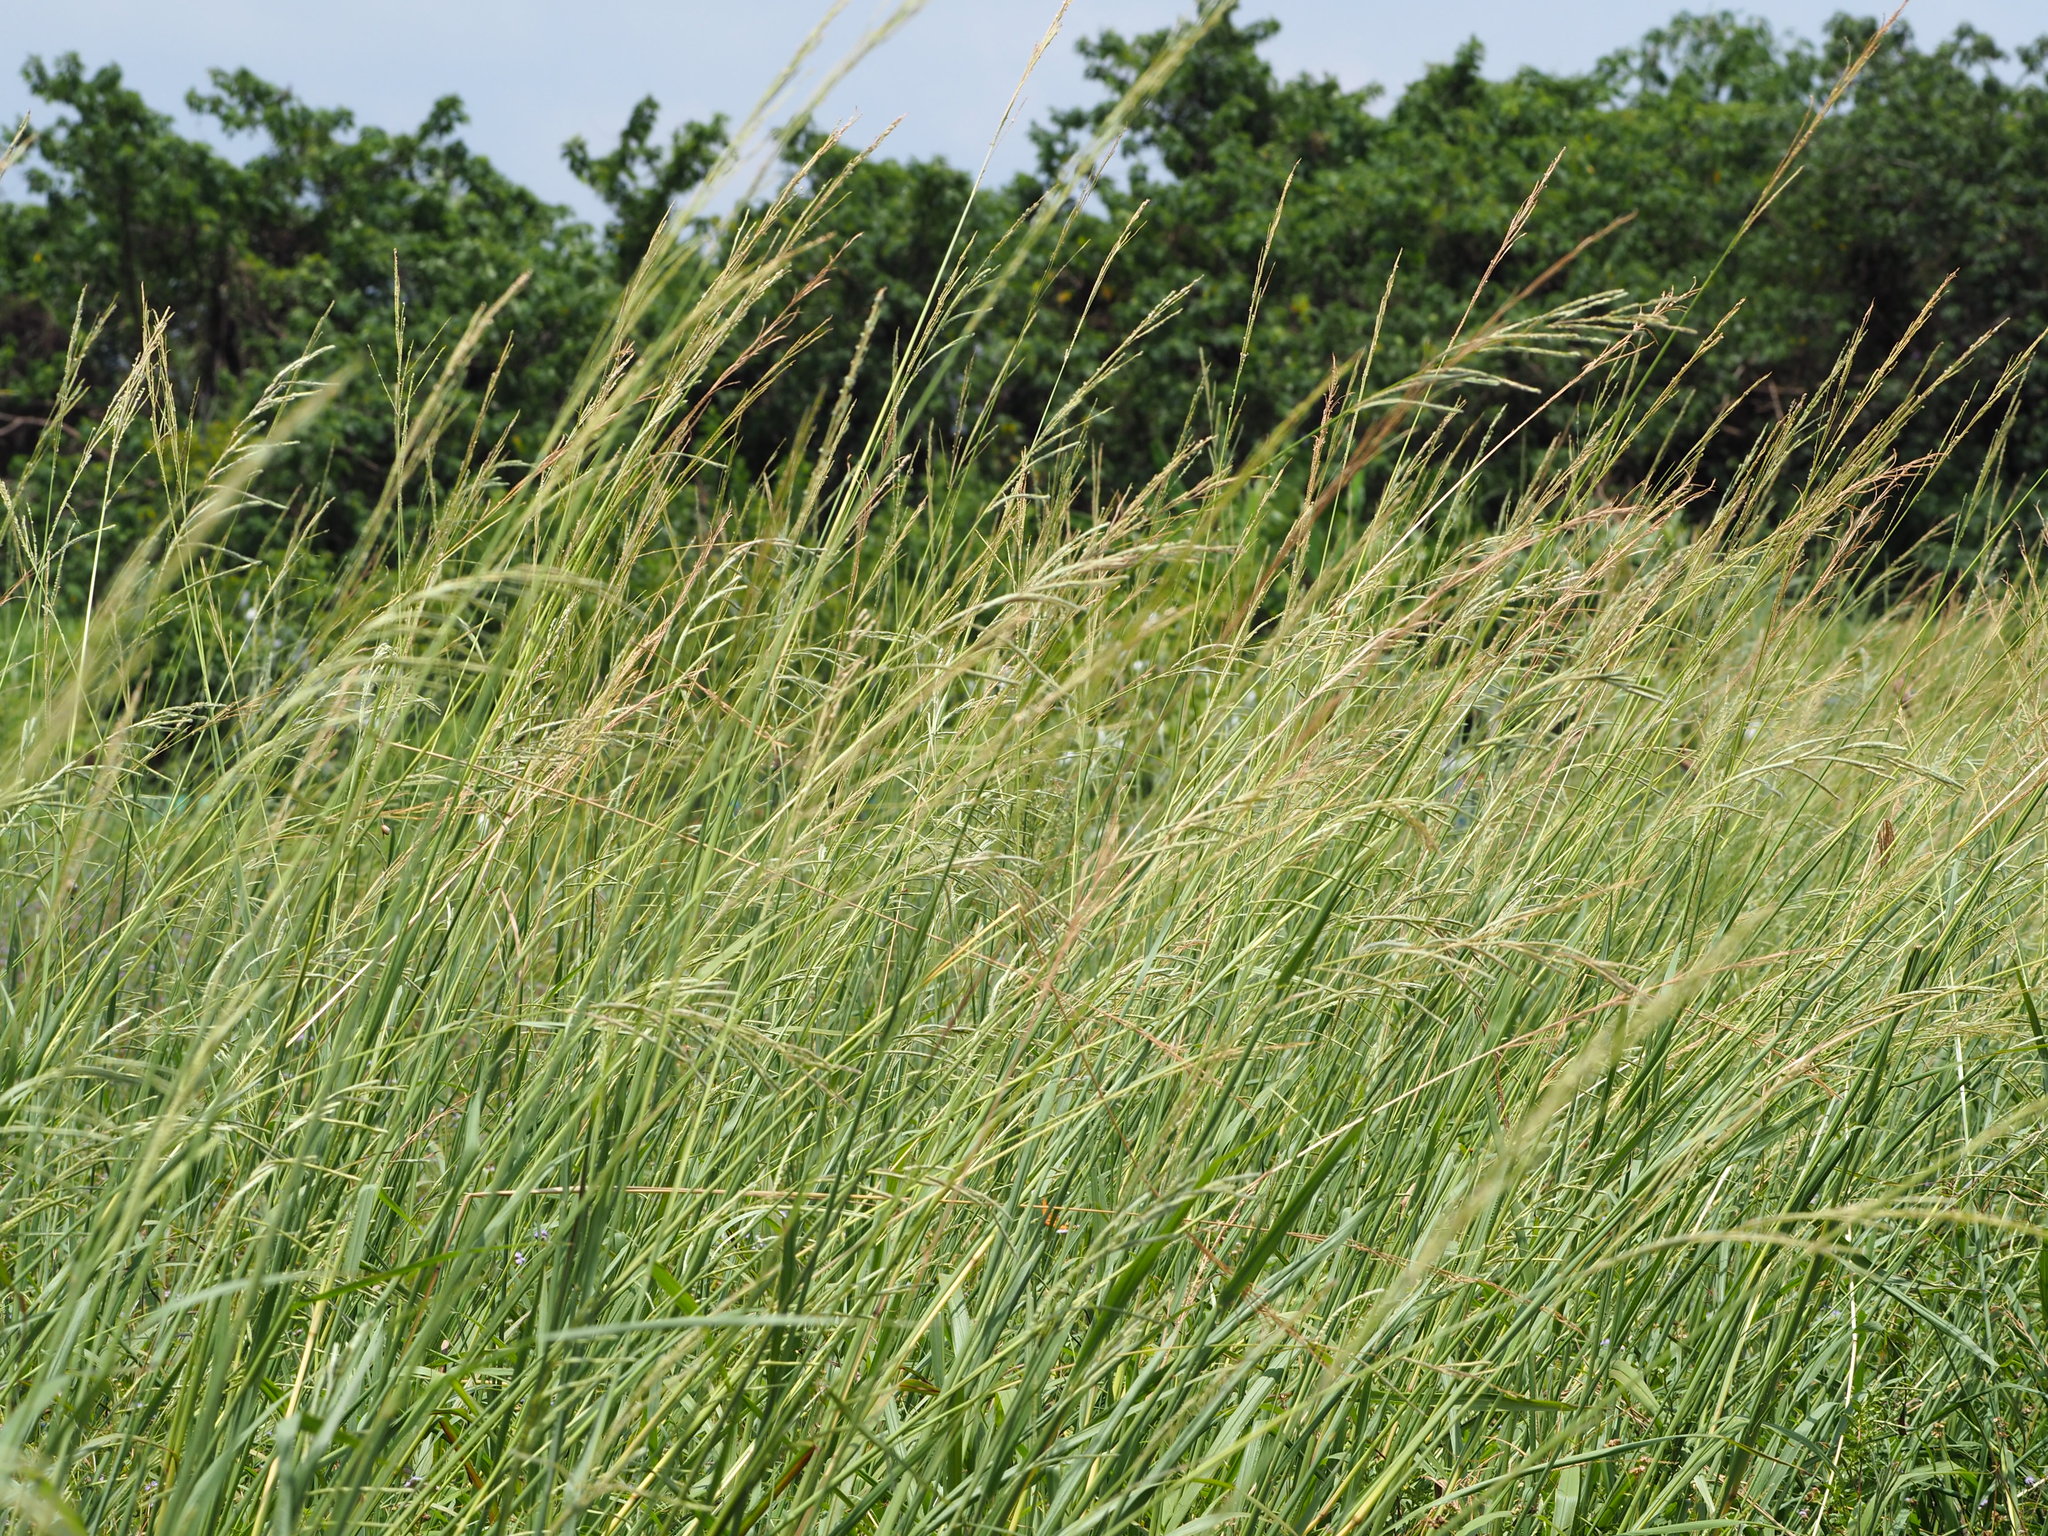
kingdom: Plantae
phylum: Tracheophyta
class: Liliopsida
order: Poales
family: Poaceae
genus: Paspalum
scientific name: Paspalum urvillei
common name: Vasey's grass
